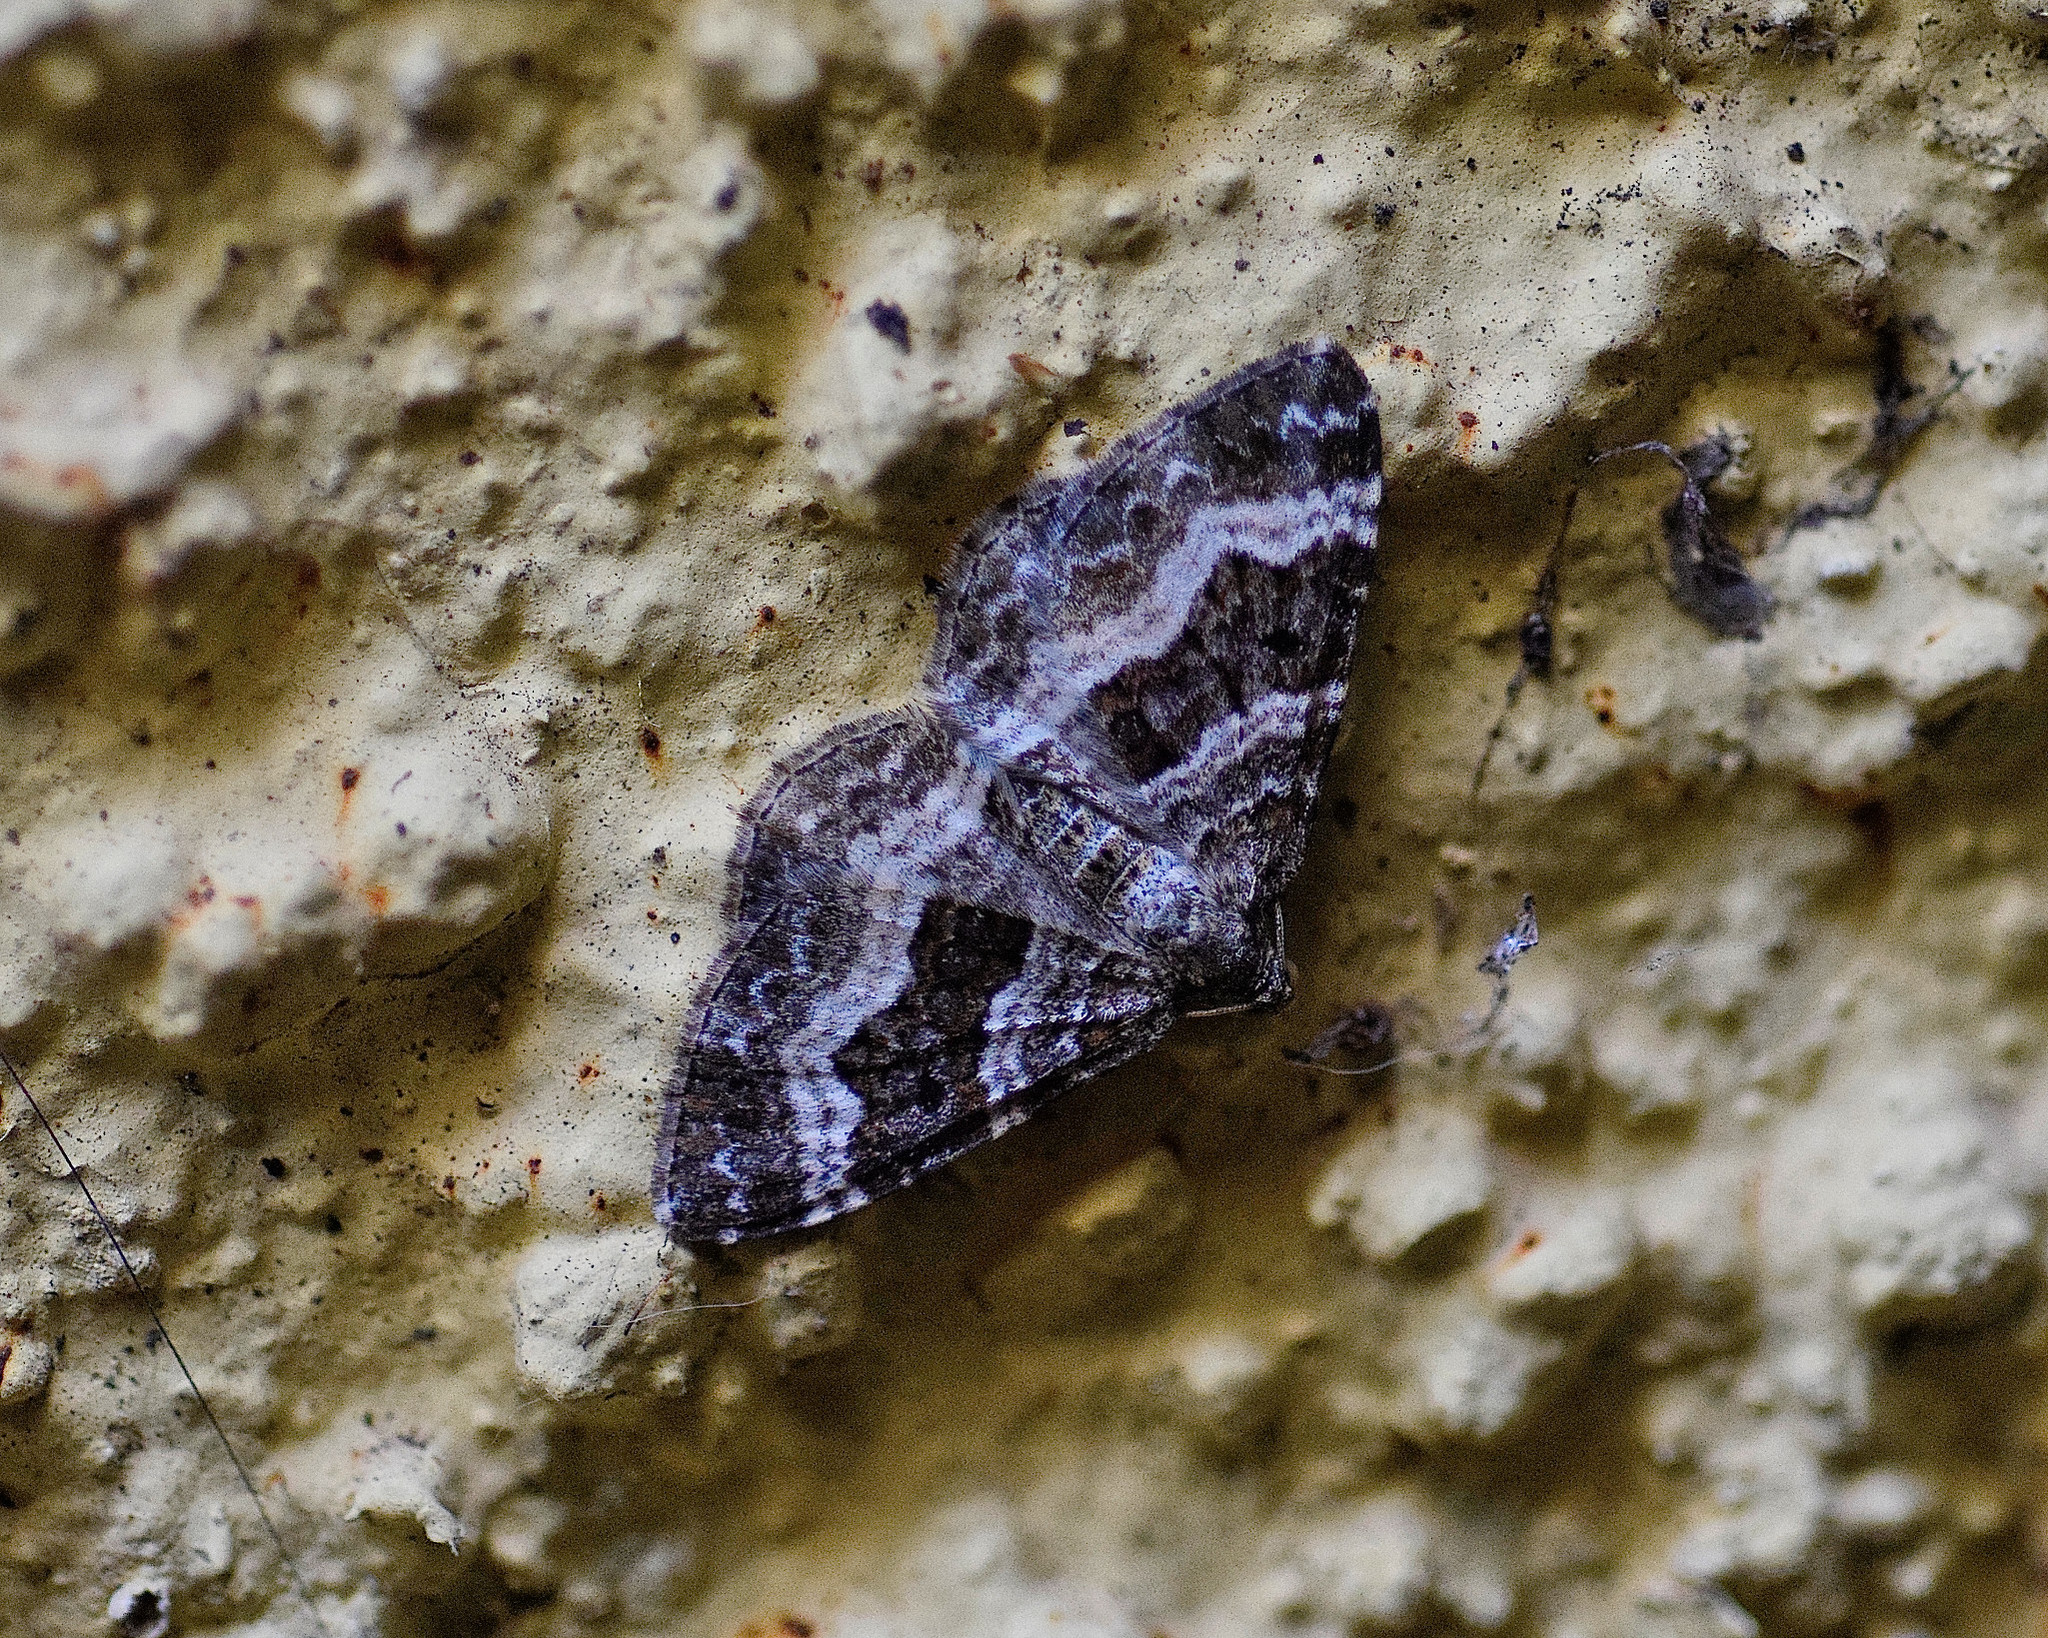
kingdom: Animalia
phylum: Arthropoda
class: Insecta
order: Lepidoptera
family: Geometridae
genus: Epirrhoe
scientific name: Epirrhoe alternata
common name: Common carpet
